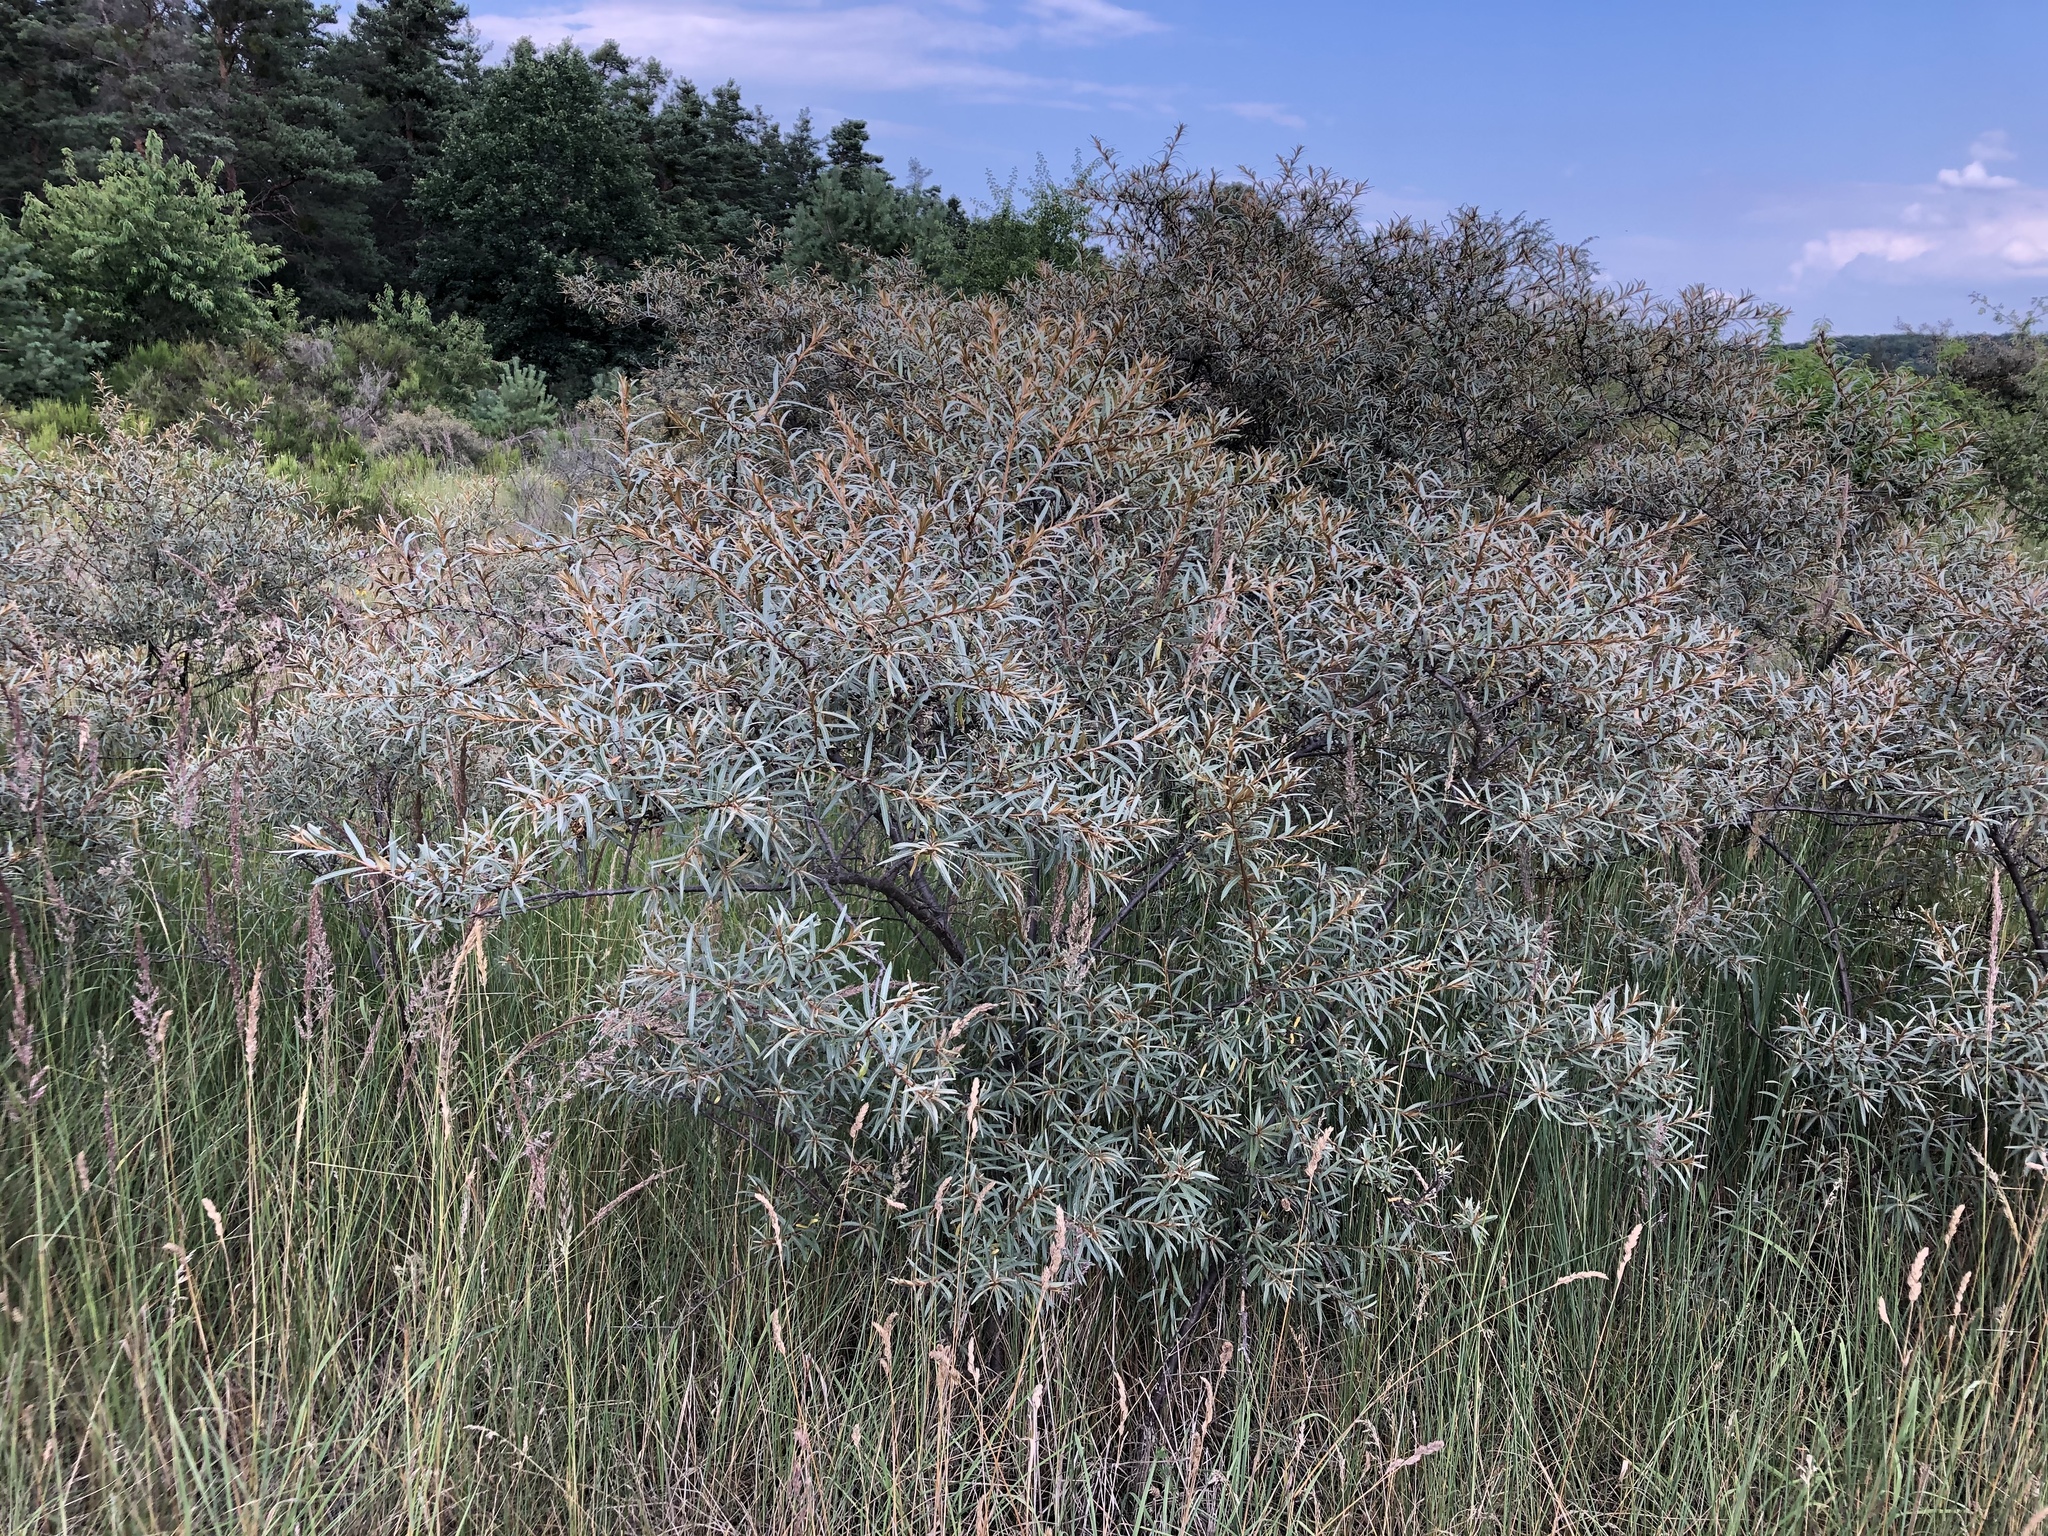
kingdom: Plantae
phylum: Tracheophyta
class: Magnoliopsida
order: Rosales
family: Elaeagnaceae
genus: Hippophae
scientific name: Hippophae rhamnoides
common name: Sea-buckthorn
